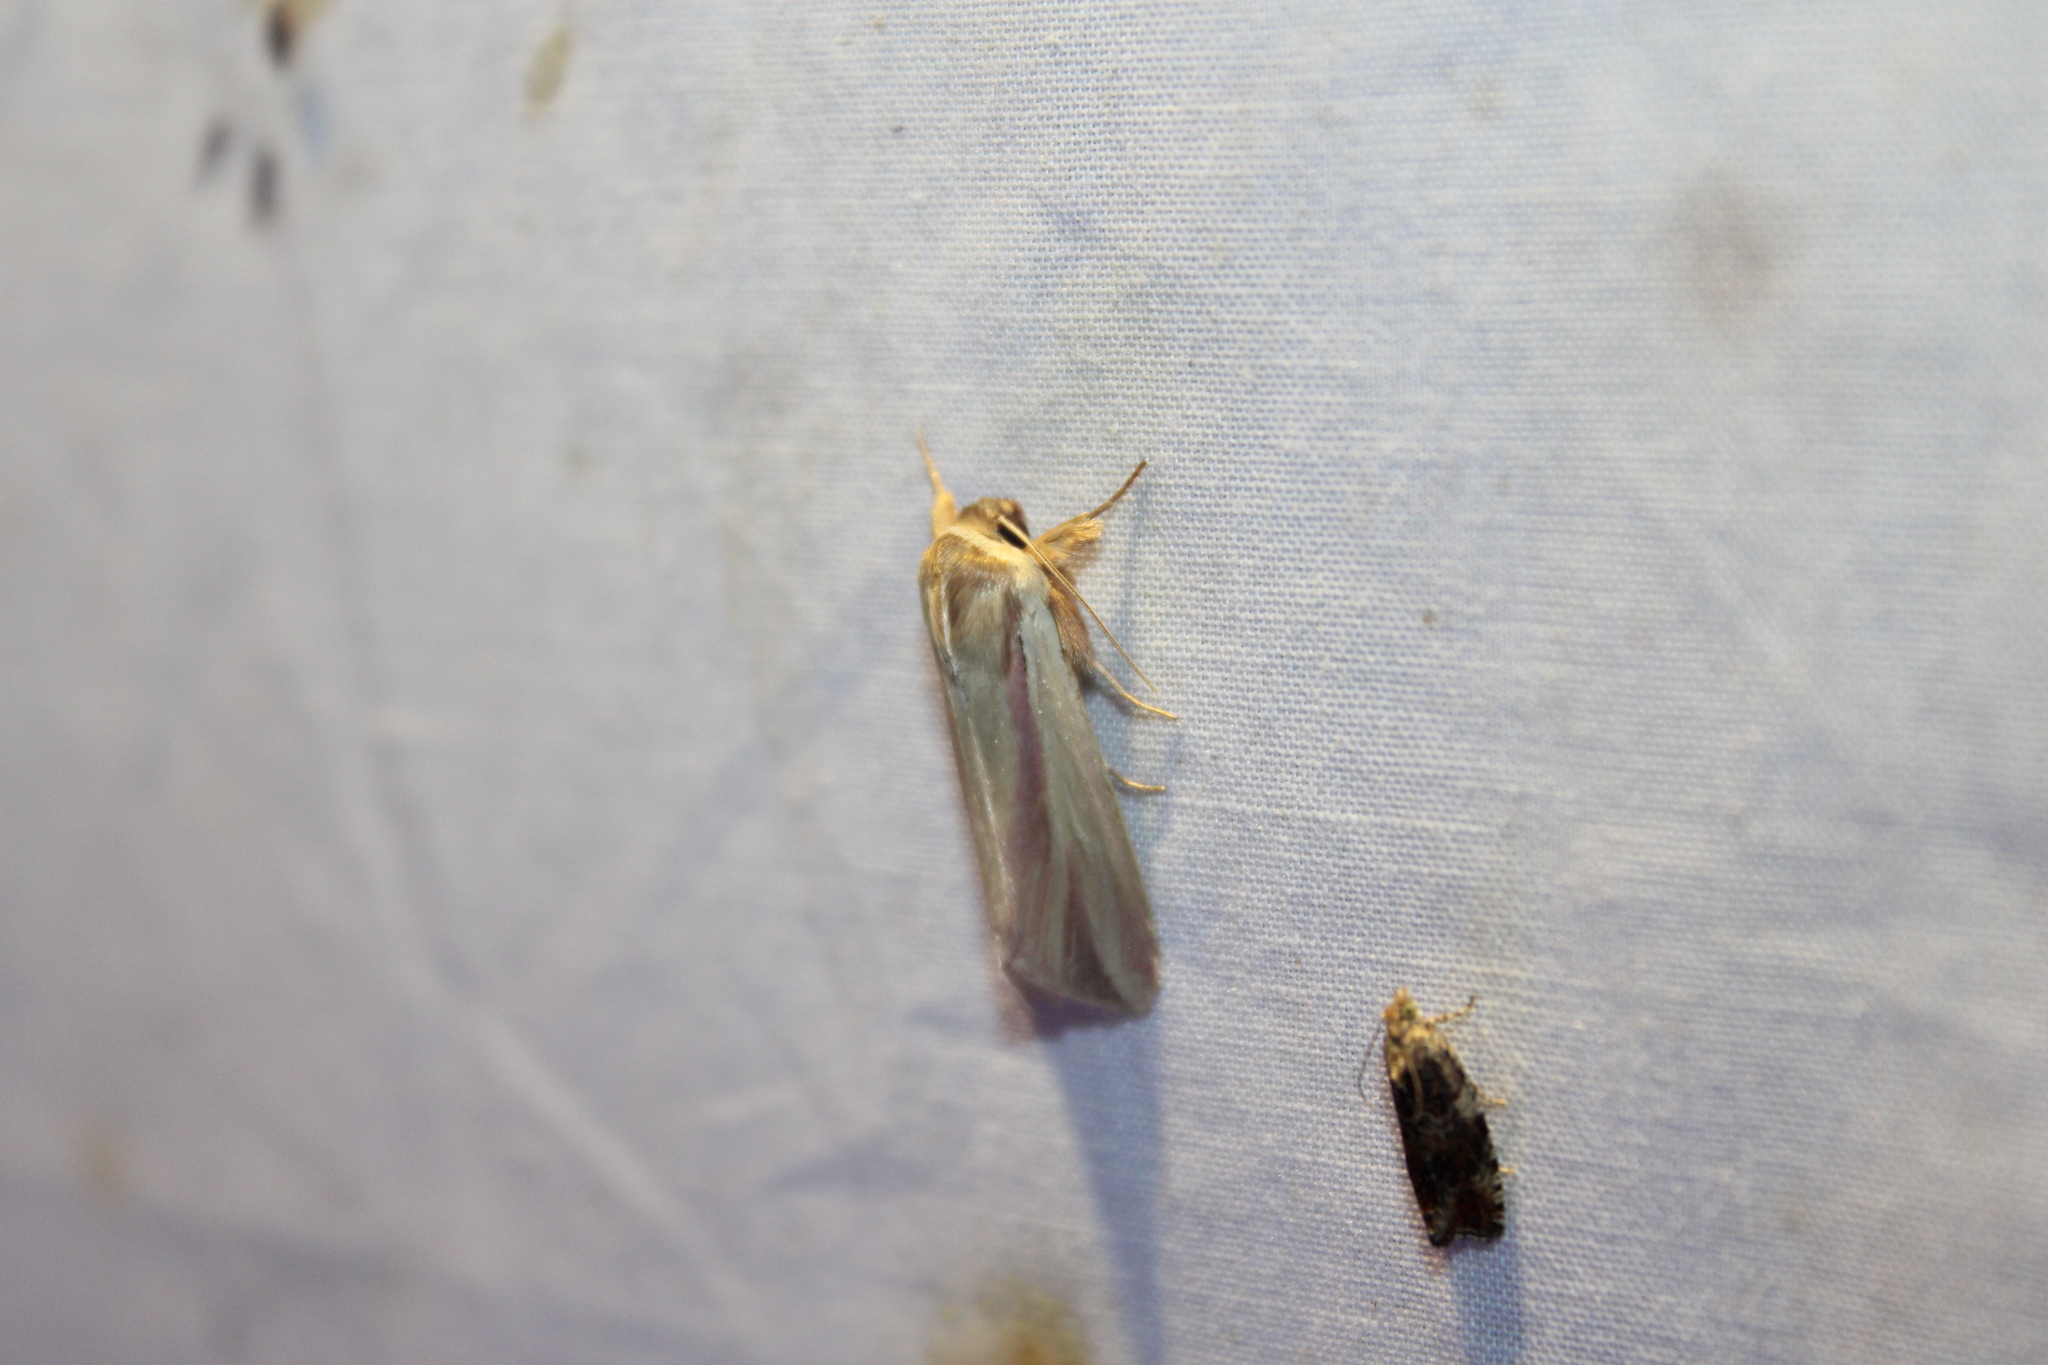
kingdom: Animalia
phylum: Arthropoda
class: Insecta
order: Lepidoptera
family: Noctuidae
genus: Dargida
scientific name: Dargida rubripennis
